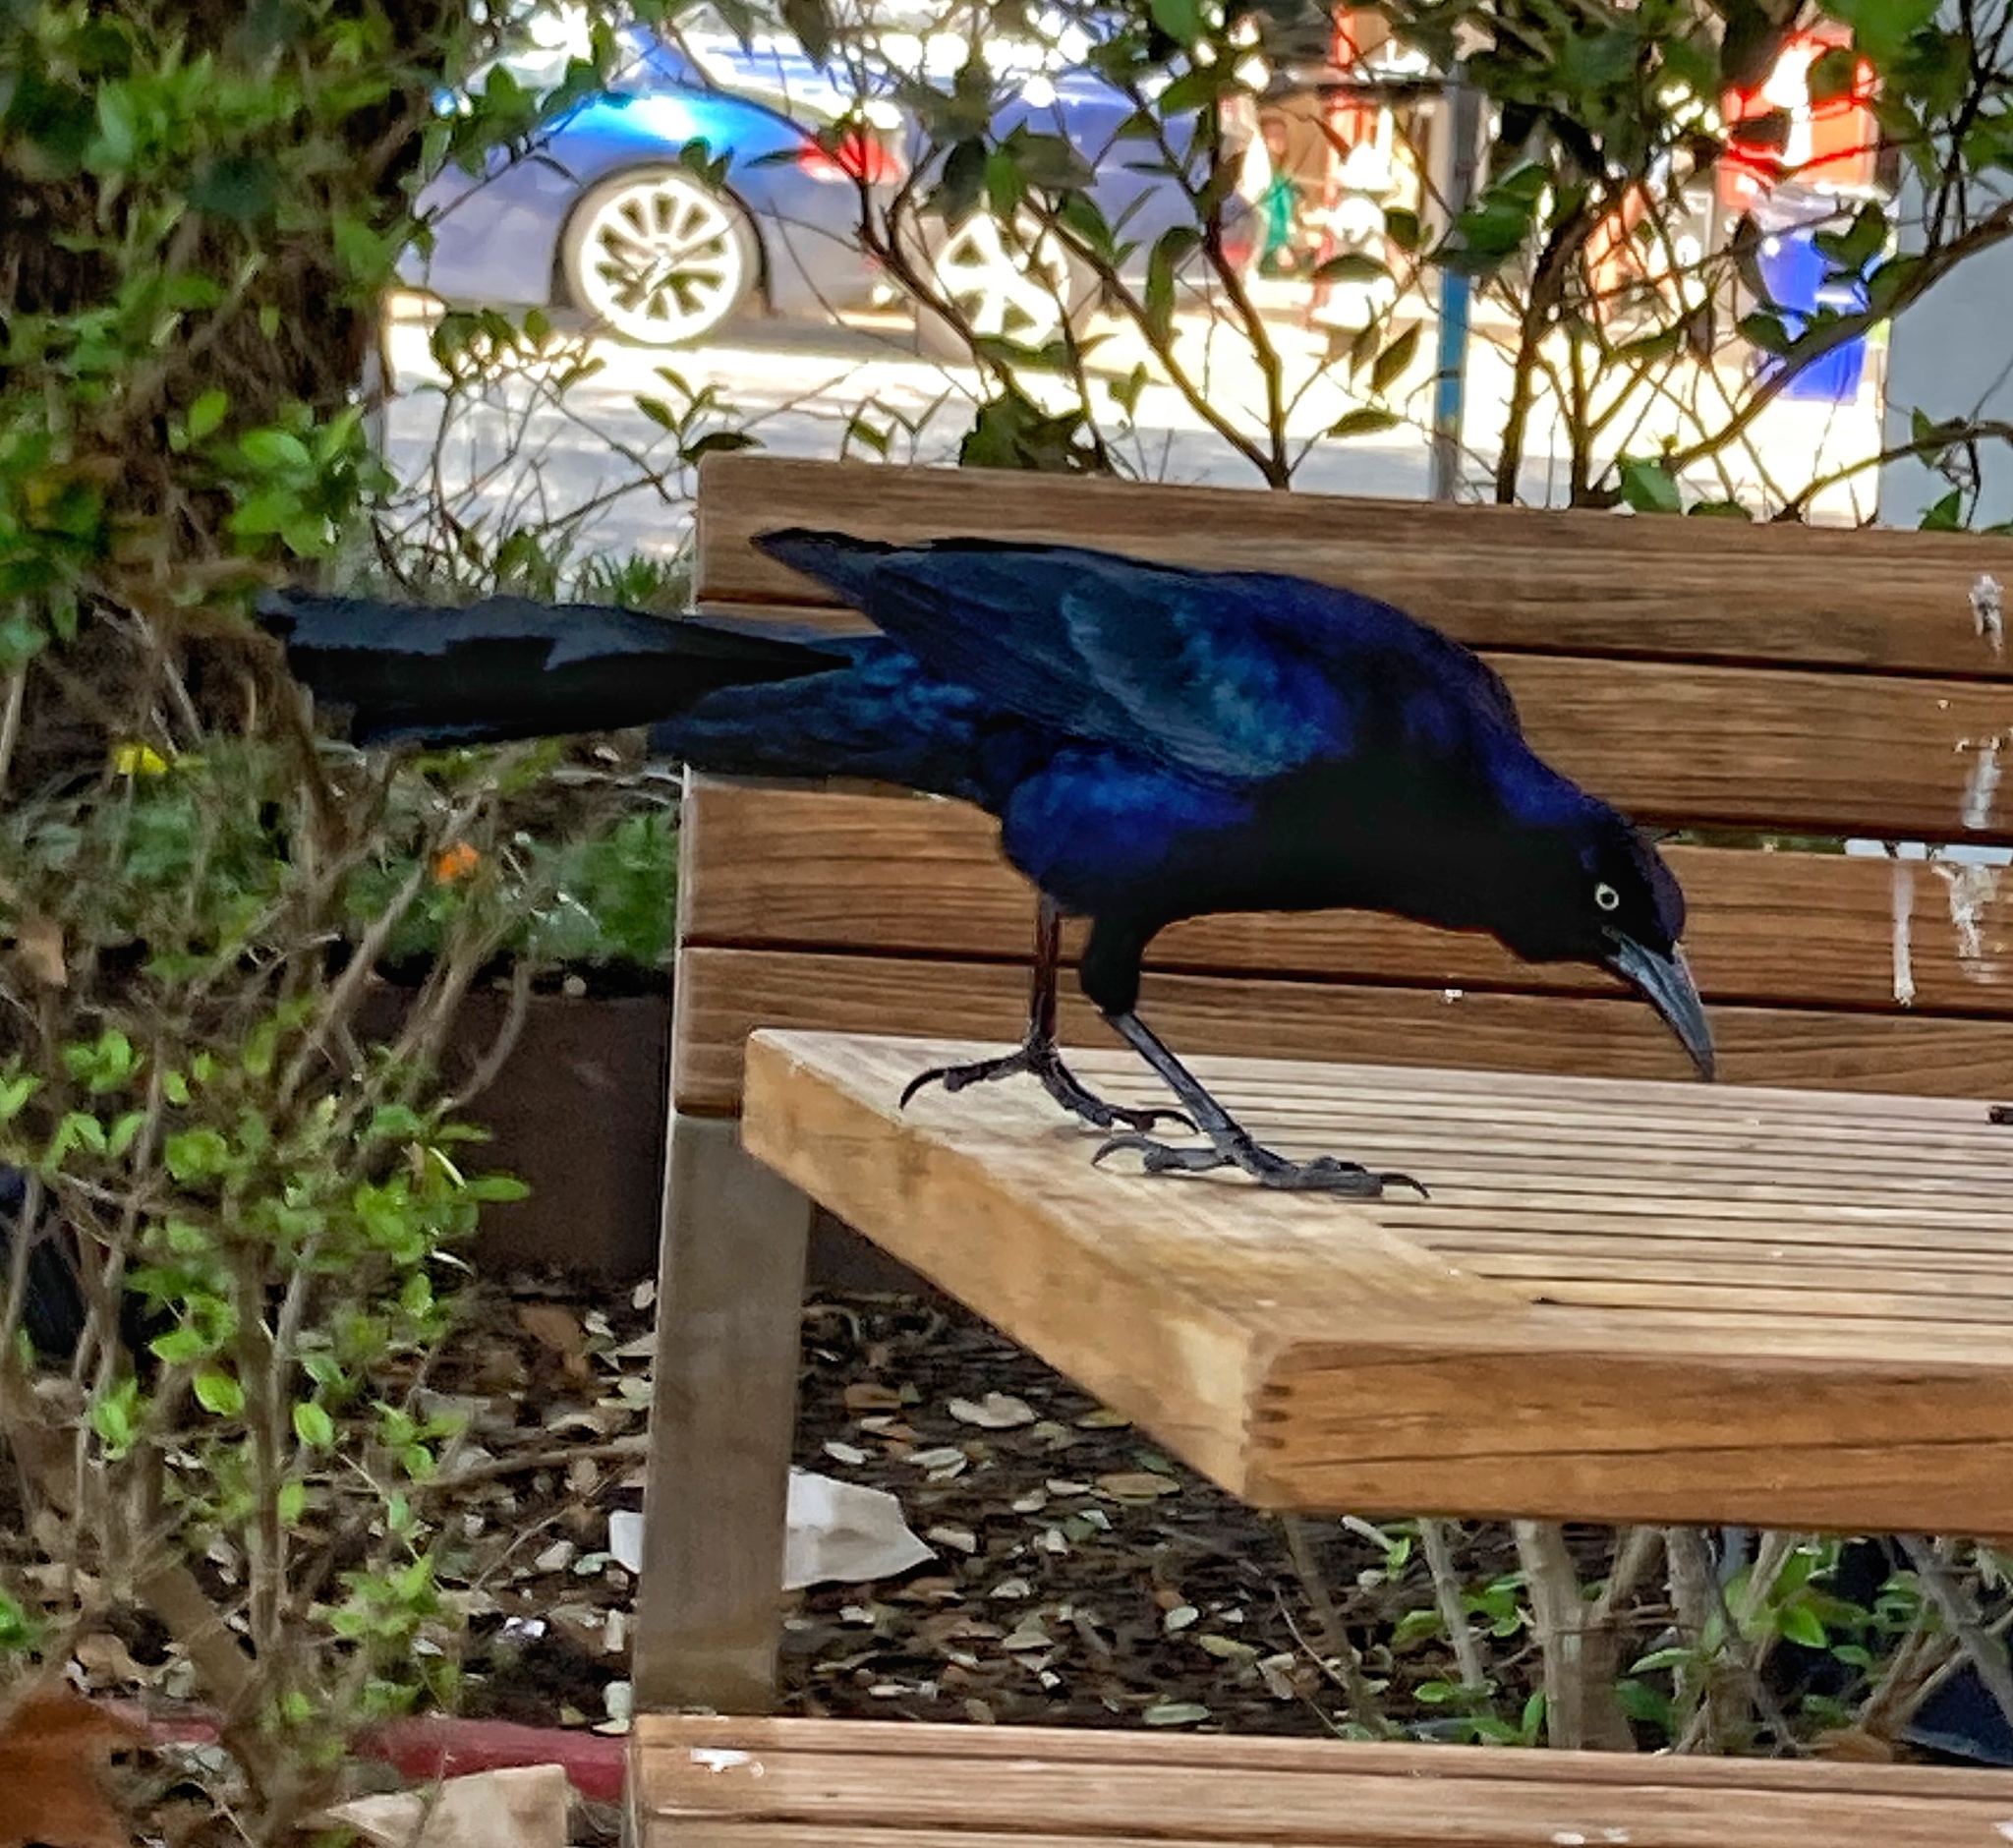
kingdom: Animalia
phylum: Chordata
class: Aves
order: Passeriformes
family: Icteridae
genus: Quiscalus
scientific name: Quiscalus mexicanus
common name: Great-tailed grackle
